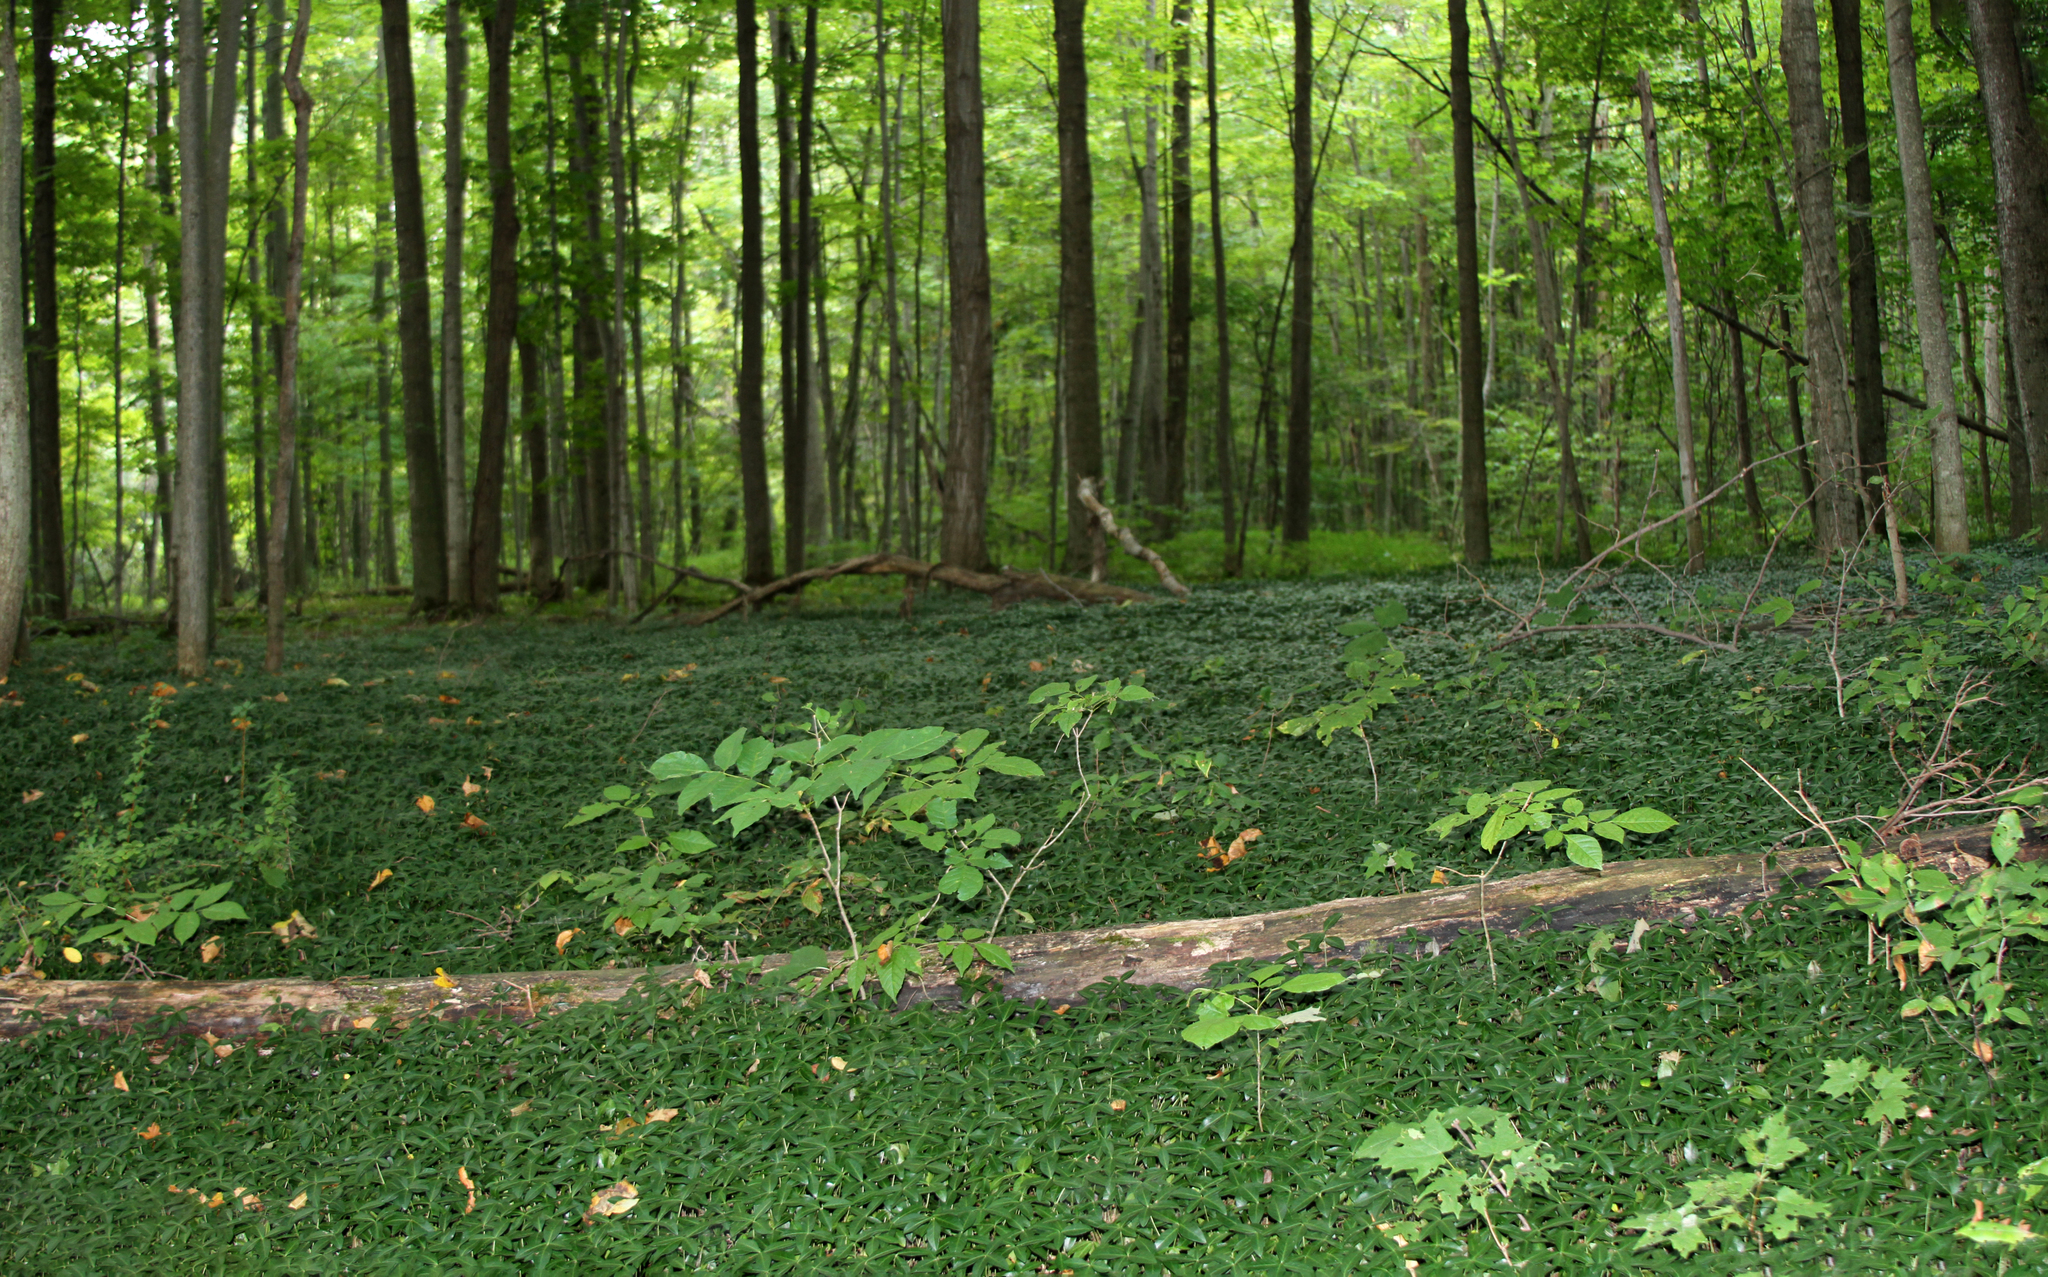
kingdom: Plantae
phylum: Tracheophyta
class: Magnoliopsida
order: Ranunculales
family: Berberidaceae
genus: Berberis
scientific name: Berberis thunbergii
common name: Japanese barberry
